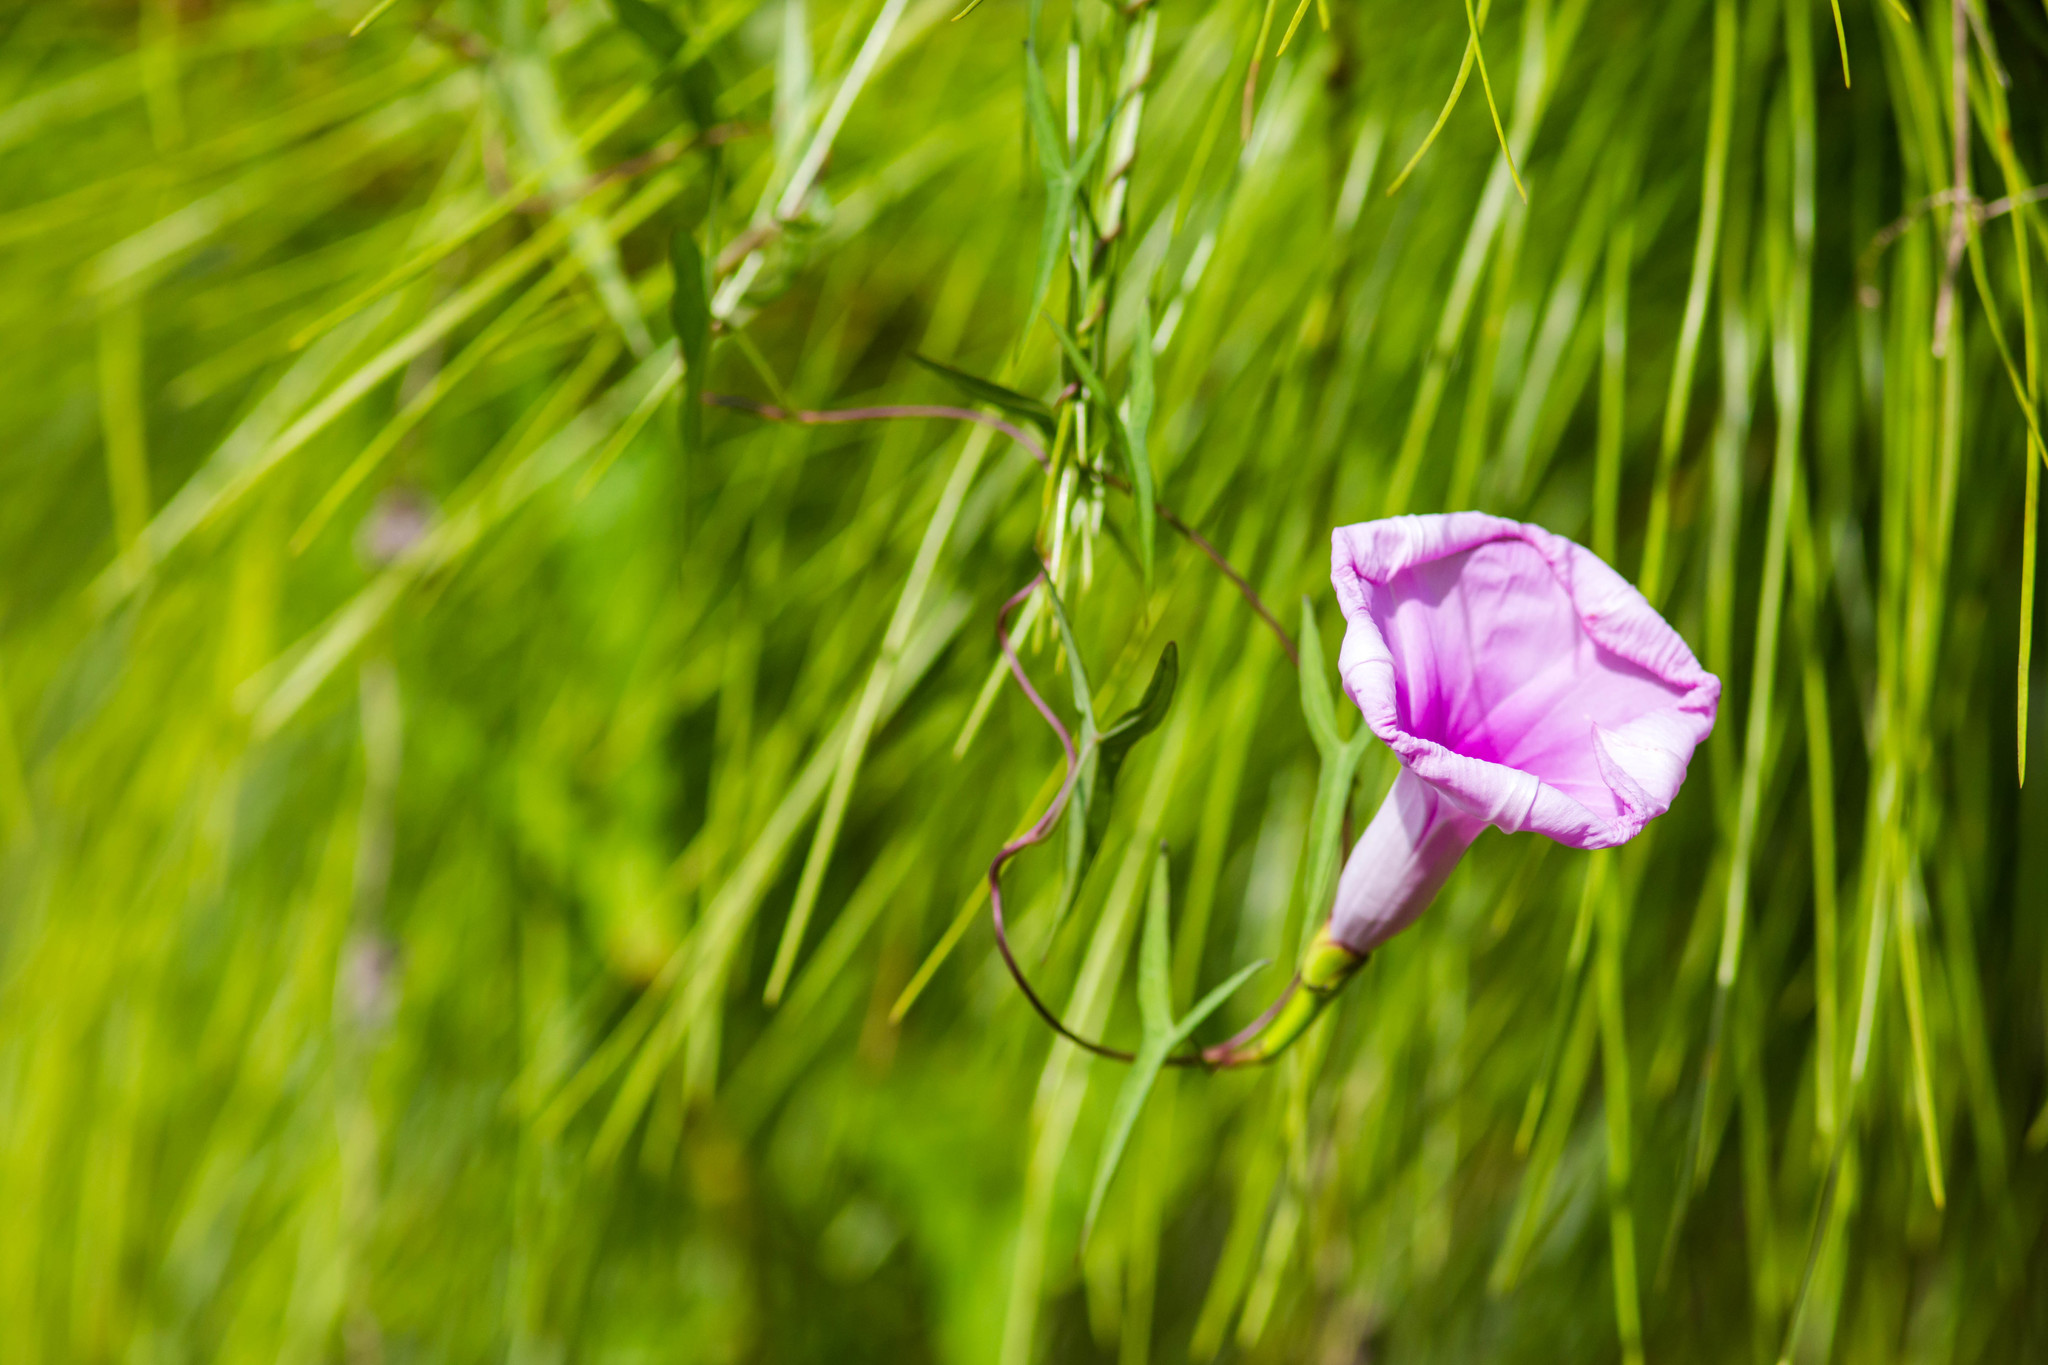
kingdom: Plantae
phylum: Tracheophyta
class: Magnoliopsida
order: Solanales
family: Convolvulaceae
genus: Ipomoea
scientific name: Ipomoea sagittata
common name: Saltmarsh morning glory
